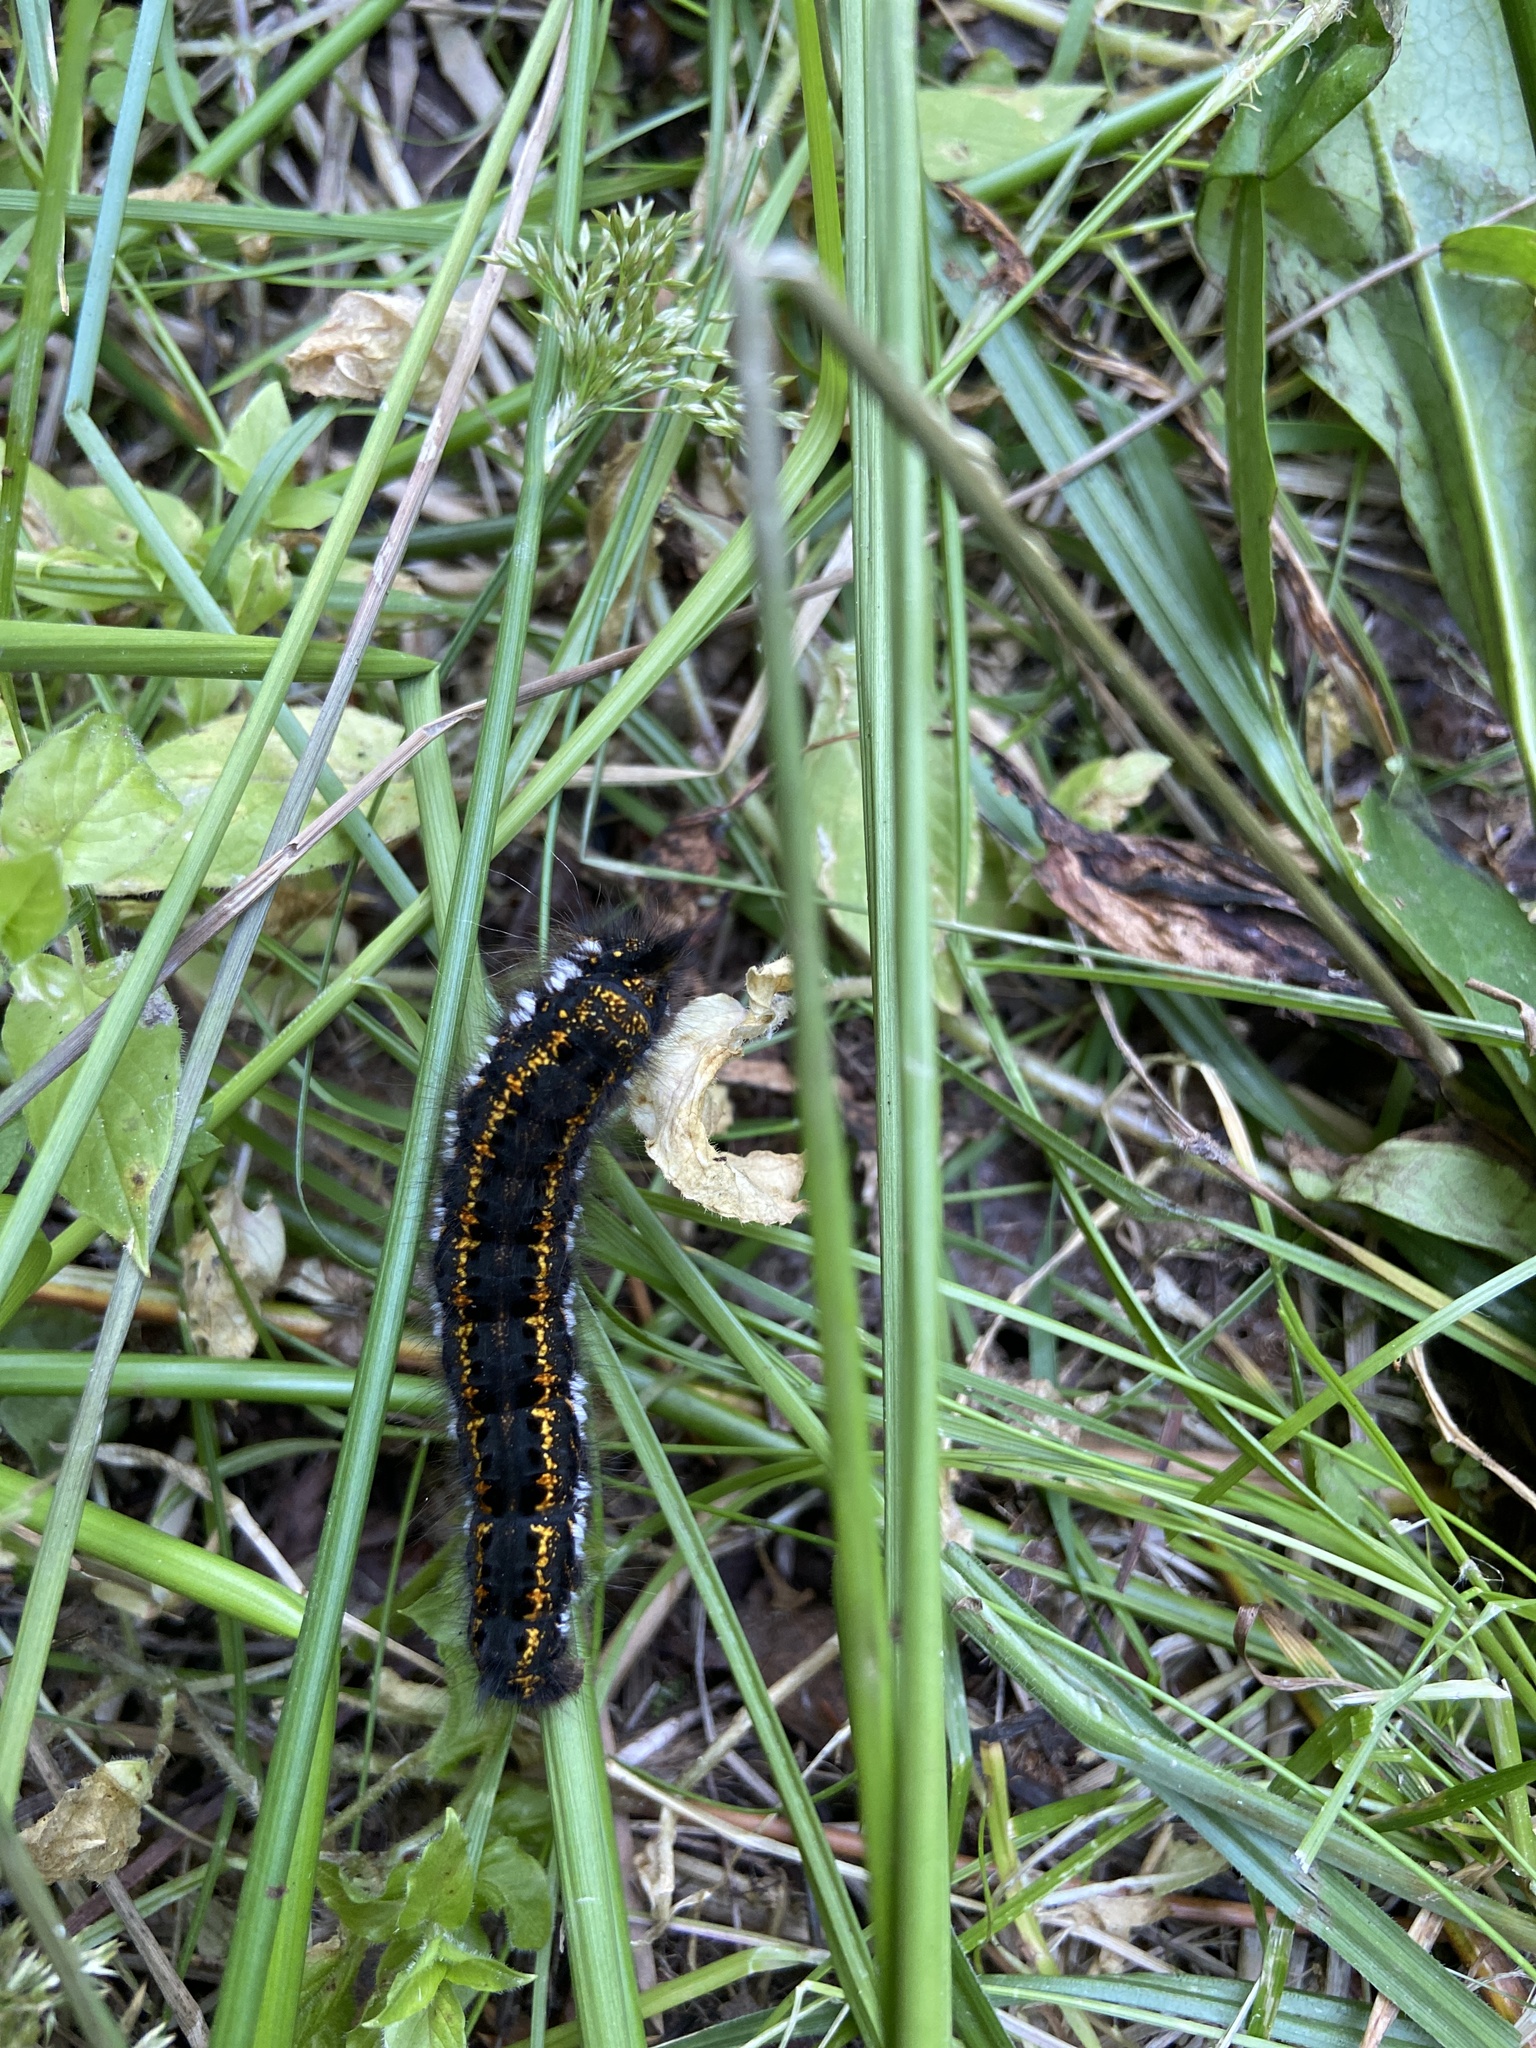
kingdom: Animalia
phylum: Arthropoda
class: Insecta
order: Lepidoptera
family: Lasiocampidae
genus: Euthrix
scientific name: Euthrix potatoria
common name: Drinker
